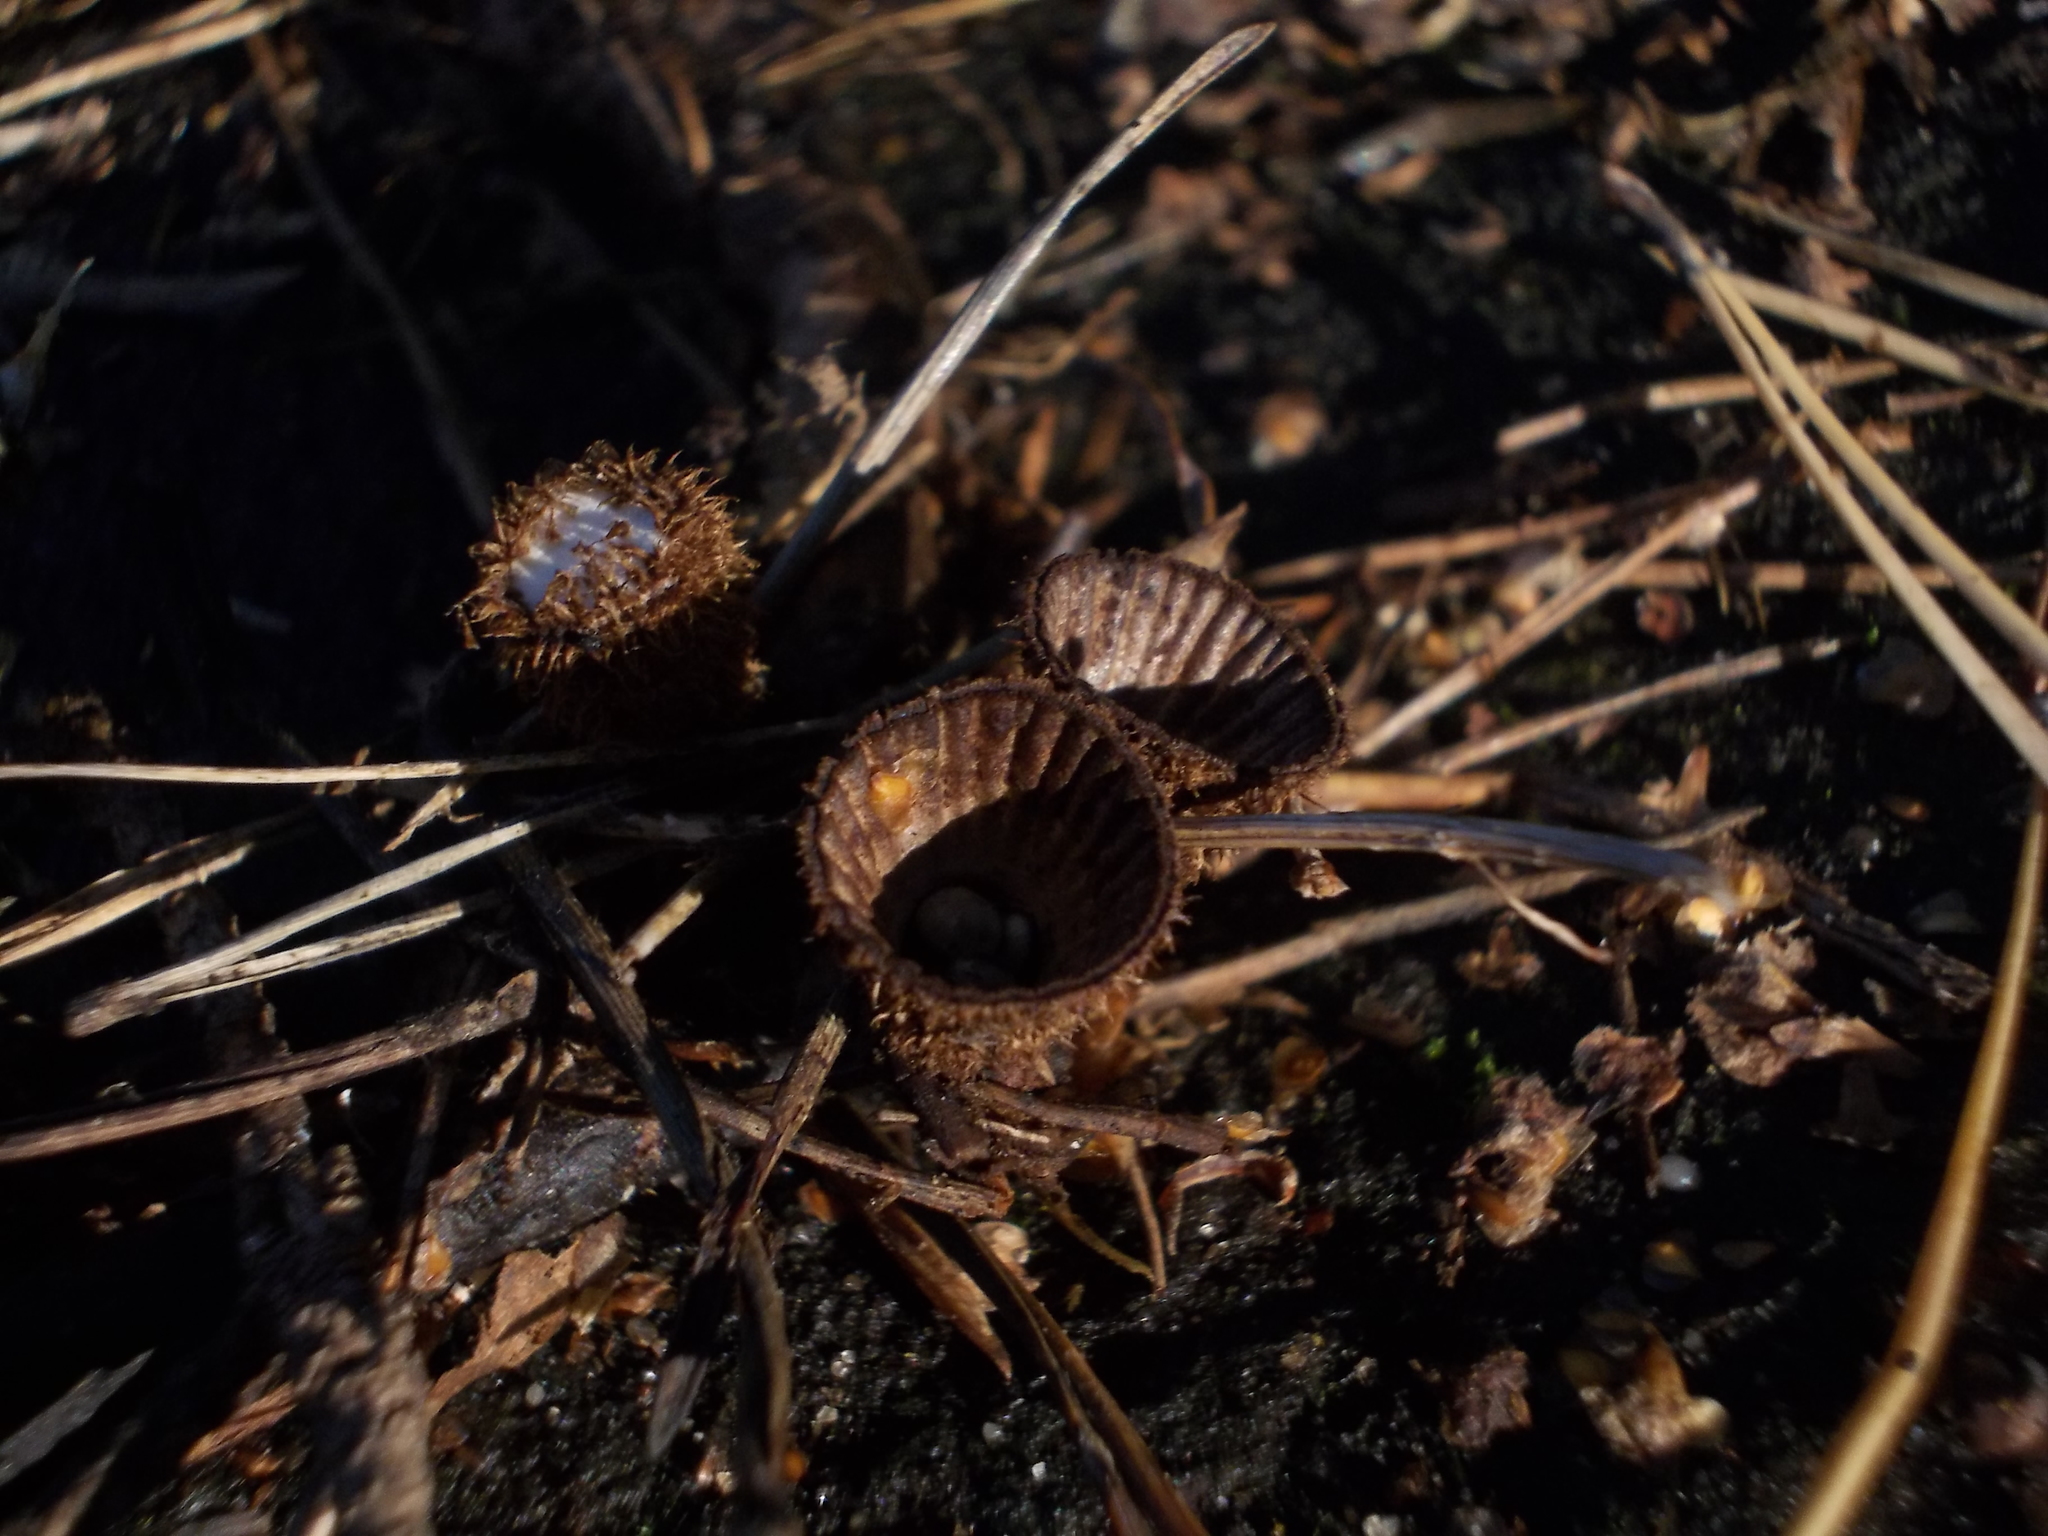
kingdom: Fungi
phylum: Basidiomycota
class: Agaricomycetes
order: Agaricales
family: Agaricaceae
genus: Cyathus
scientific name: Cyathus striatus
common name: Fluted bird's nest
